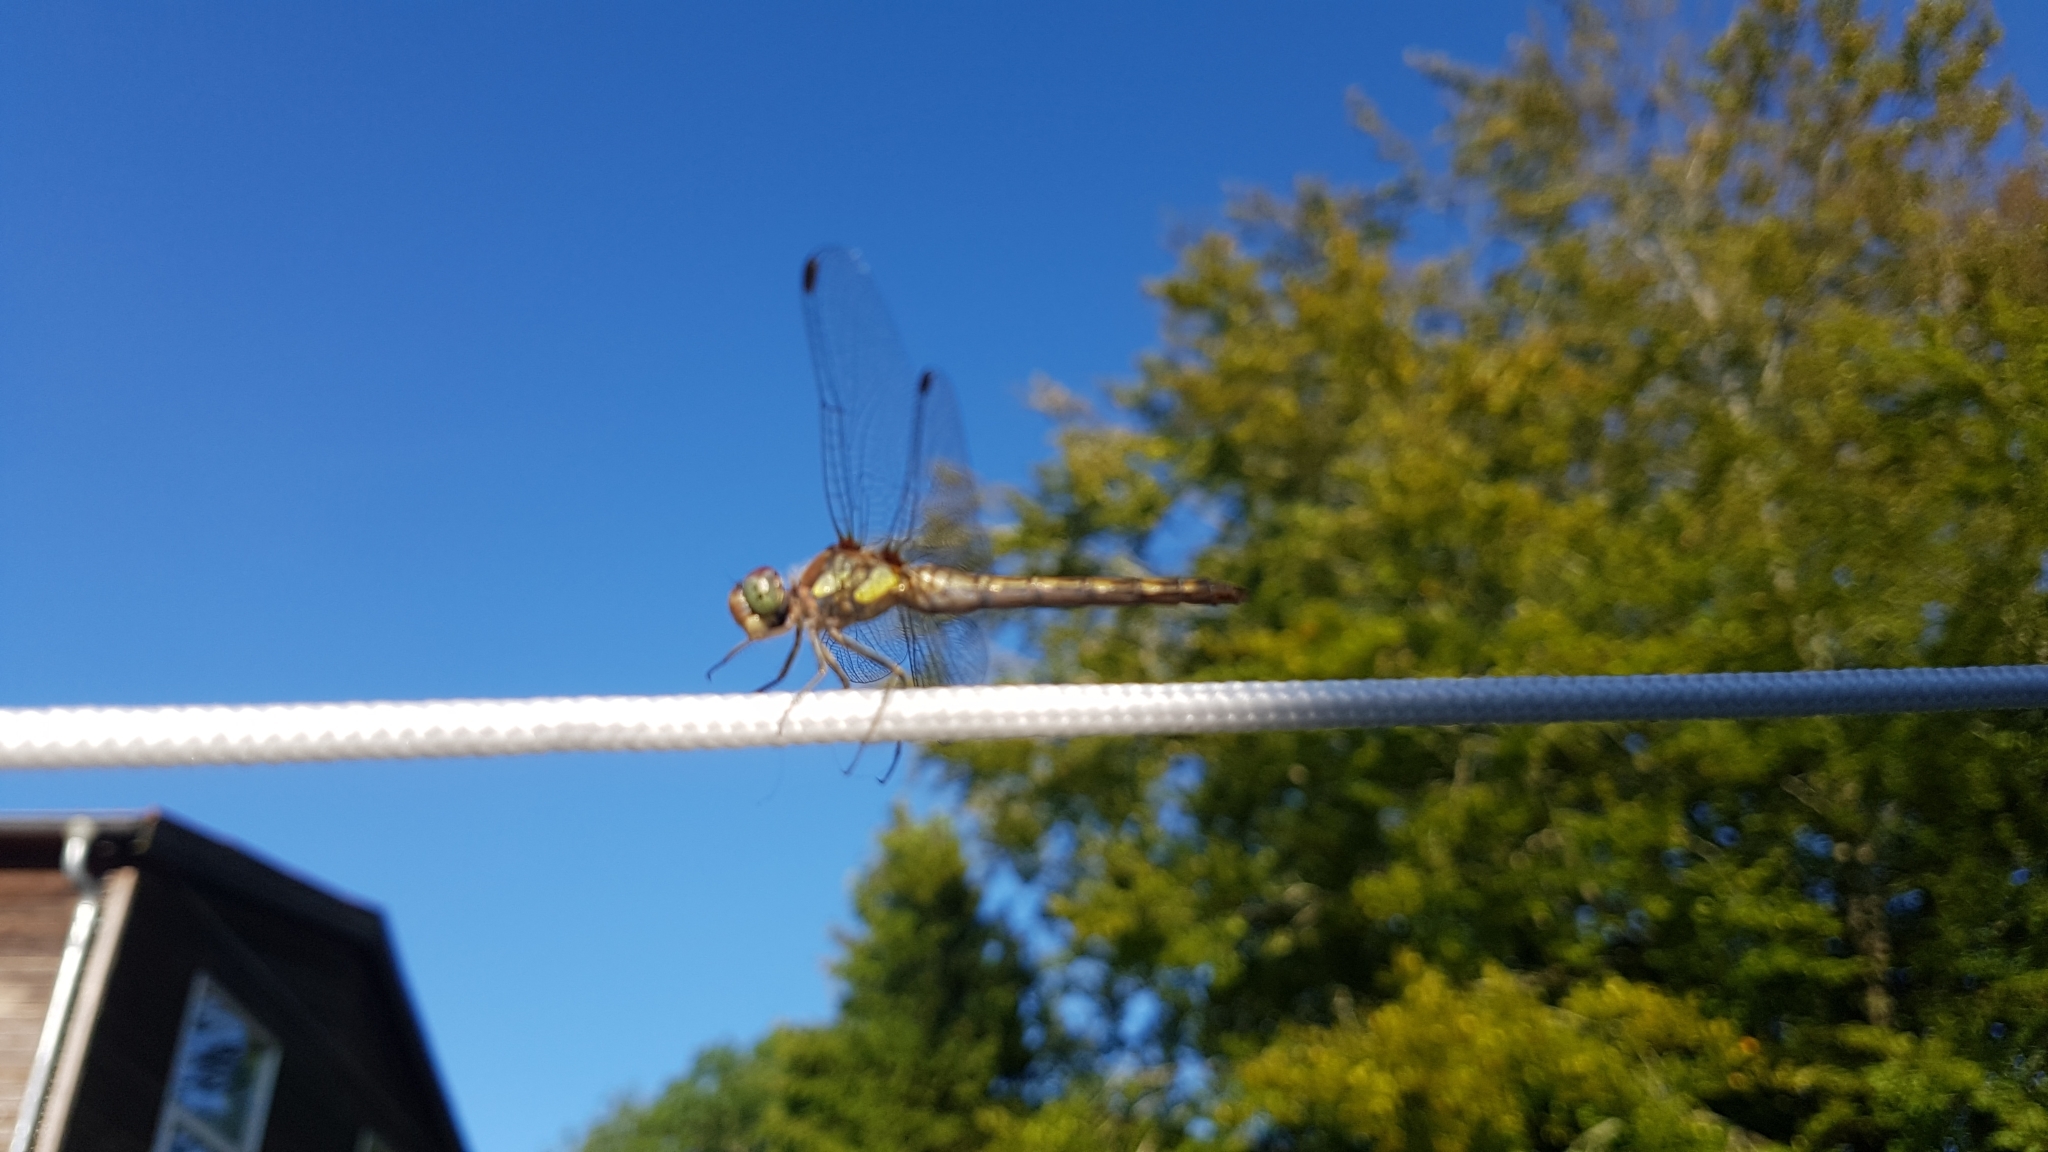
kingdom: Animalia
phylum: Arthropoda
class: Insecta
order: Odonata
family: Libellulidae
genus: Sympetrum
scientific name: Sympetrum striolatum
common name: Common darter
